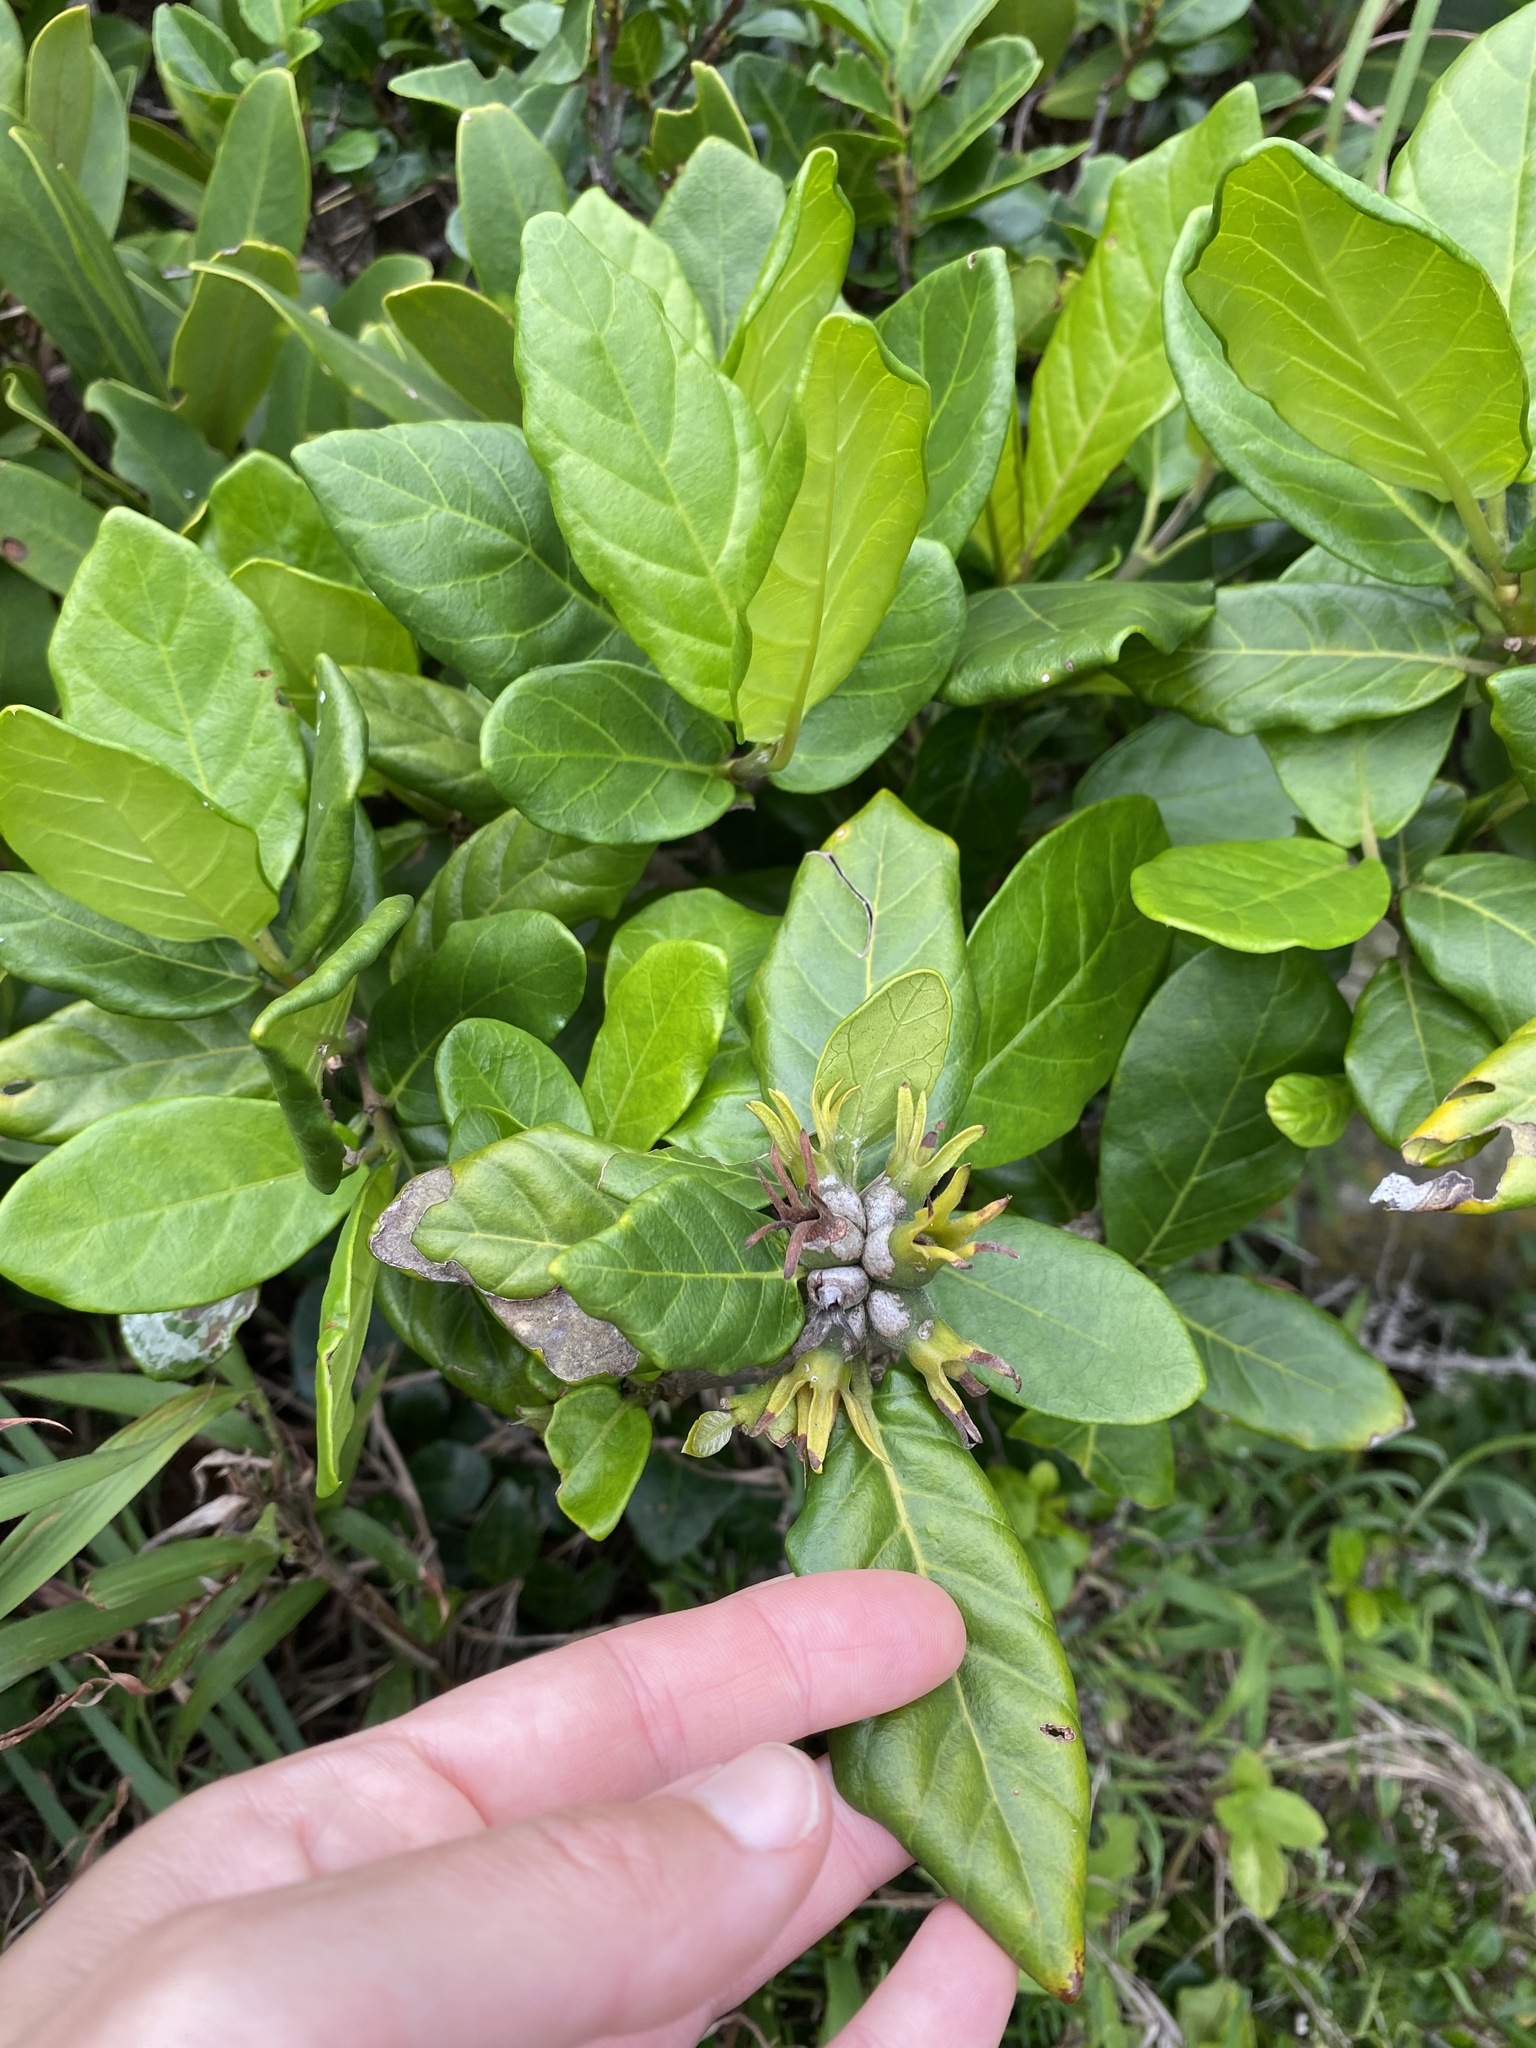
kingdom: Plantae
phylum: Tracheophyta
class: Magnoliopsida
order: Gentianales
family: Rubiaceae
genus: Burchellia
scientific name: Burchellia bubalina
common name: Wild pomegranate
